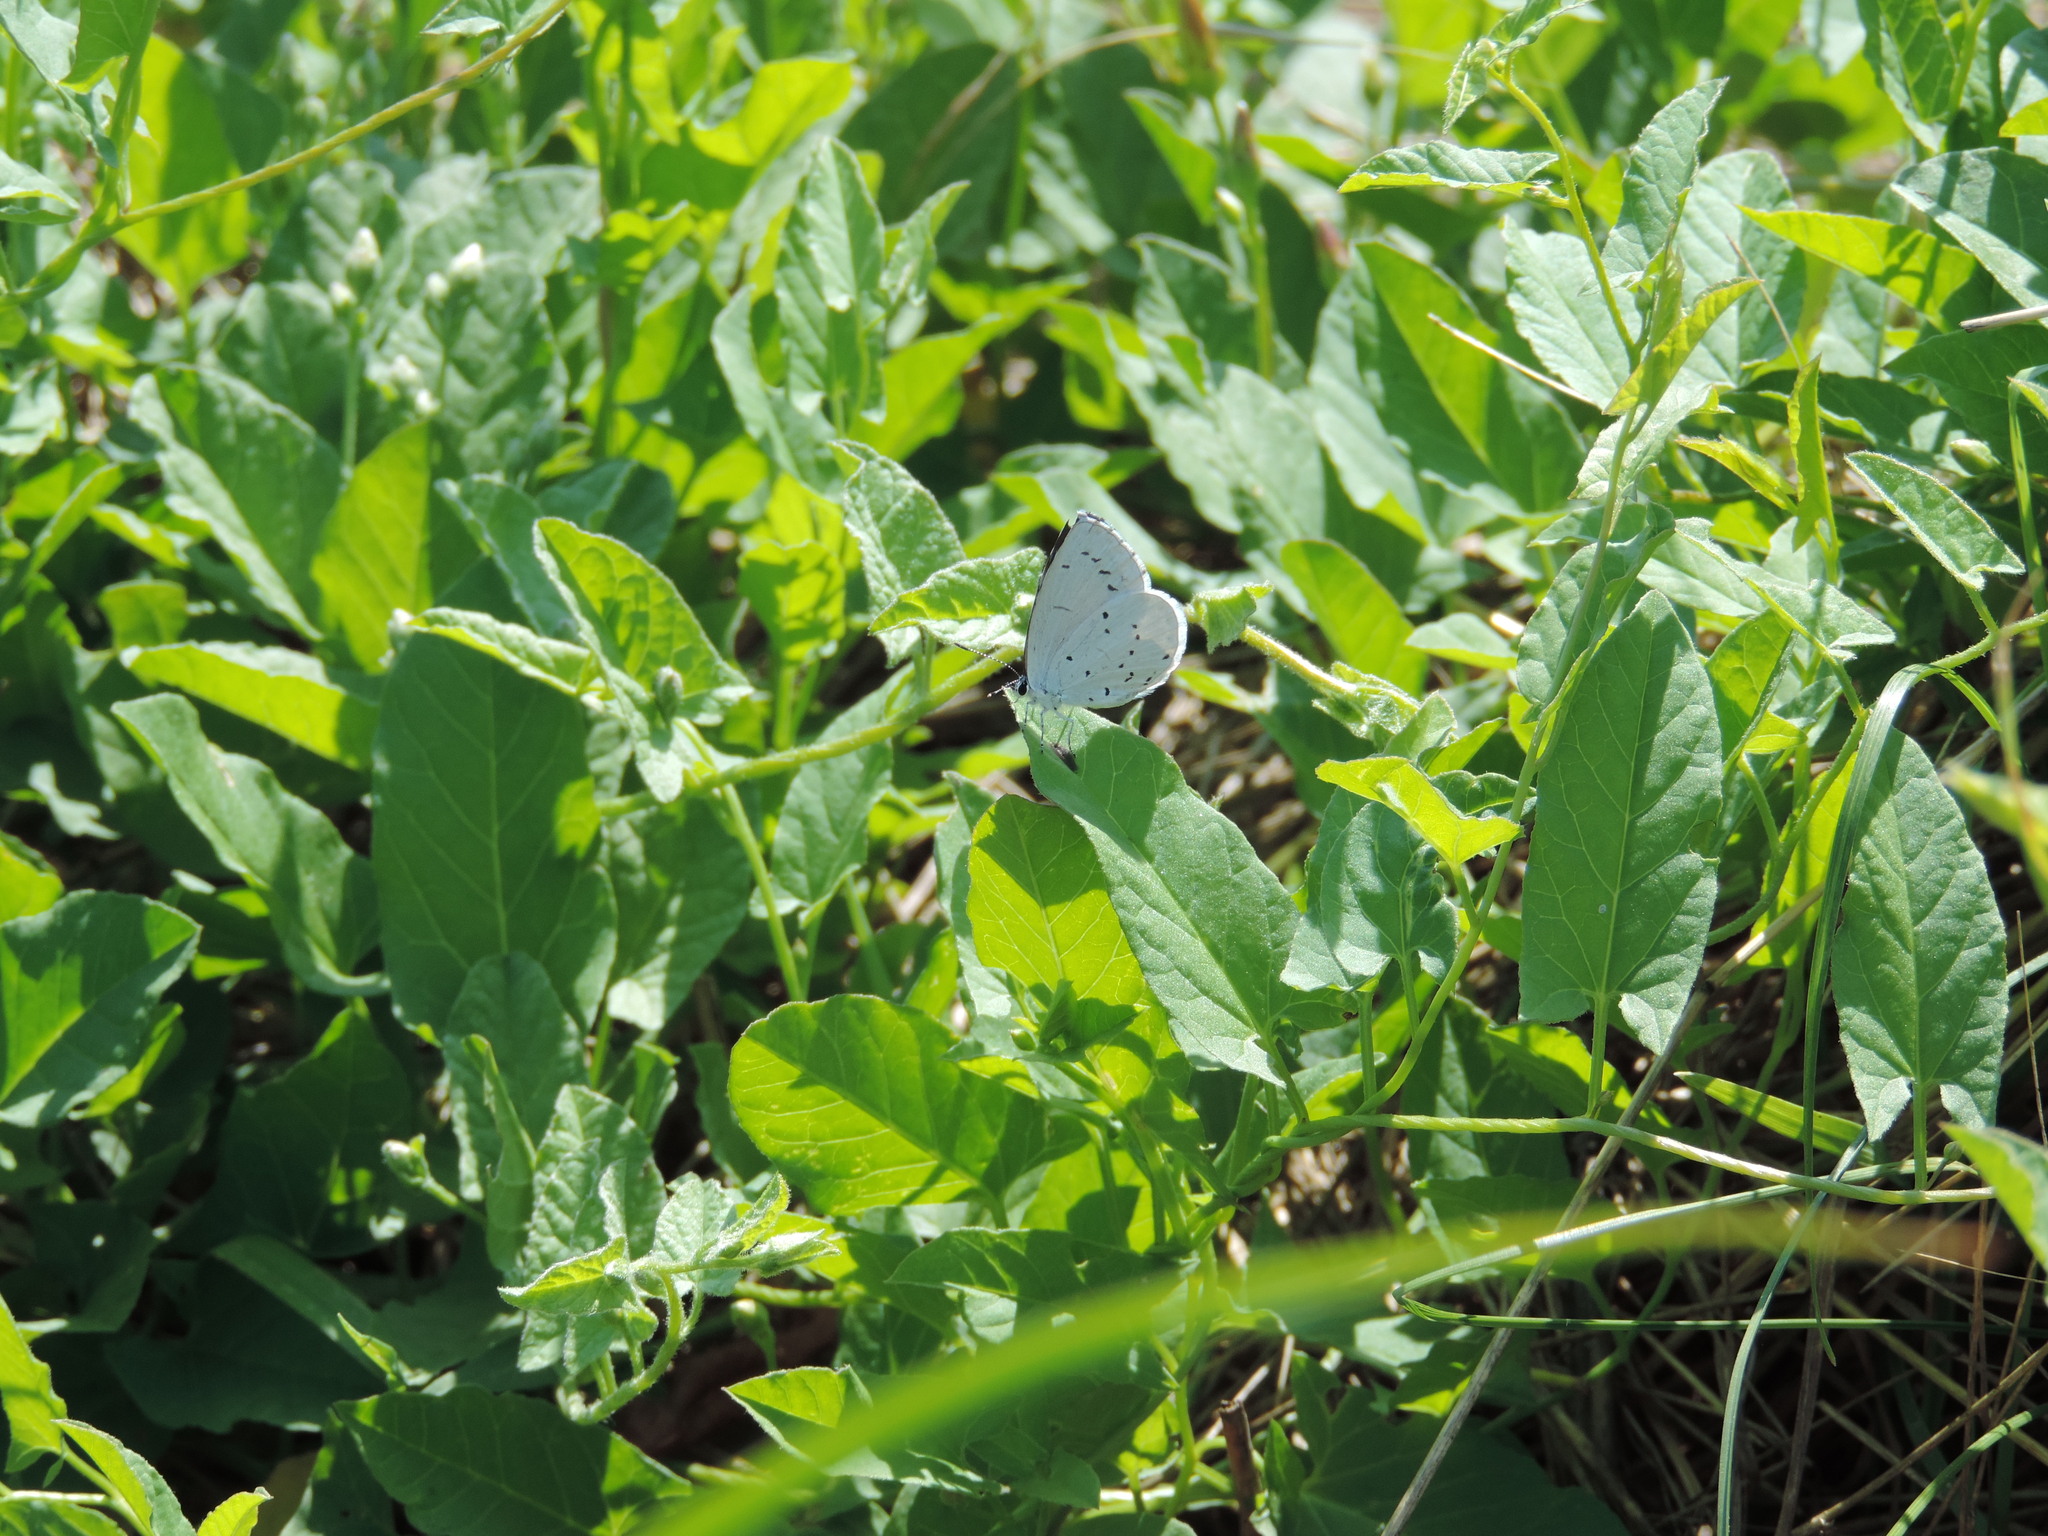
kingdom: Animalia
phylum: Arthropoda
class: Insecta
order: Lepidoptera
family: Lycaenidae
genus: Celastrina
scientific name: Celastrina argiolus
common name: Holly blue
